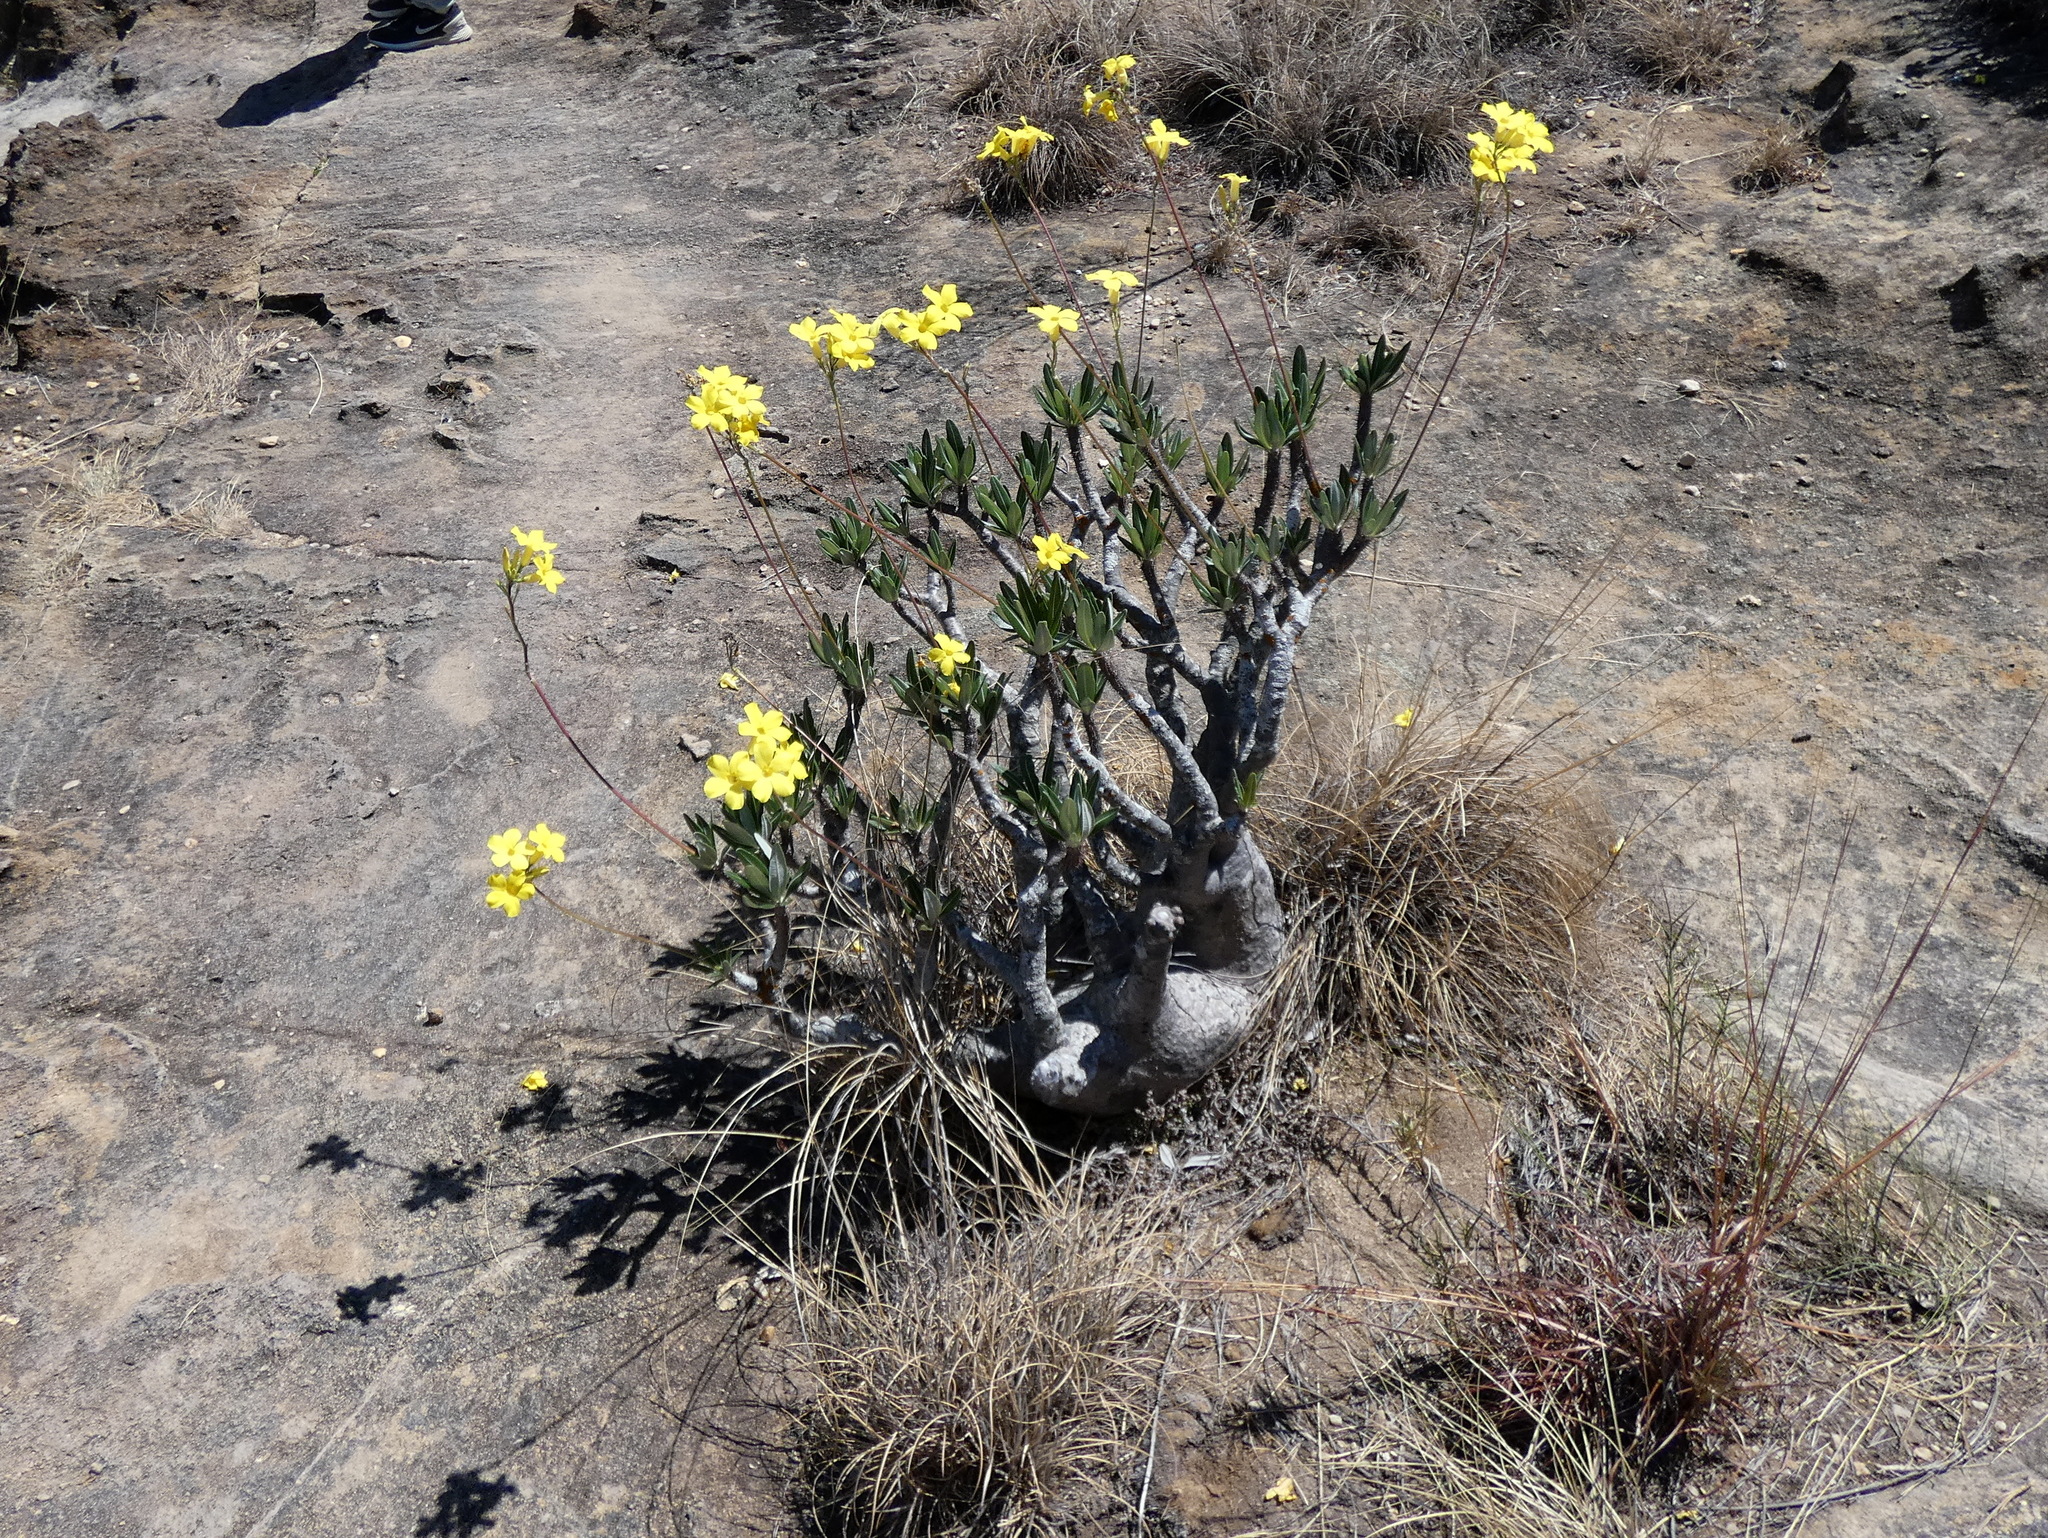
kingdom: Plantae
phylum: Tracheophyta
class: Magnoliopsida
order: Gentianales
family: Apocynaceae
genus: Pachypodium
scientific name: Pachypodium gracilius
